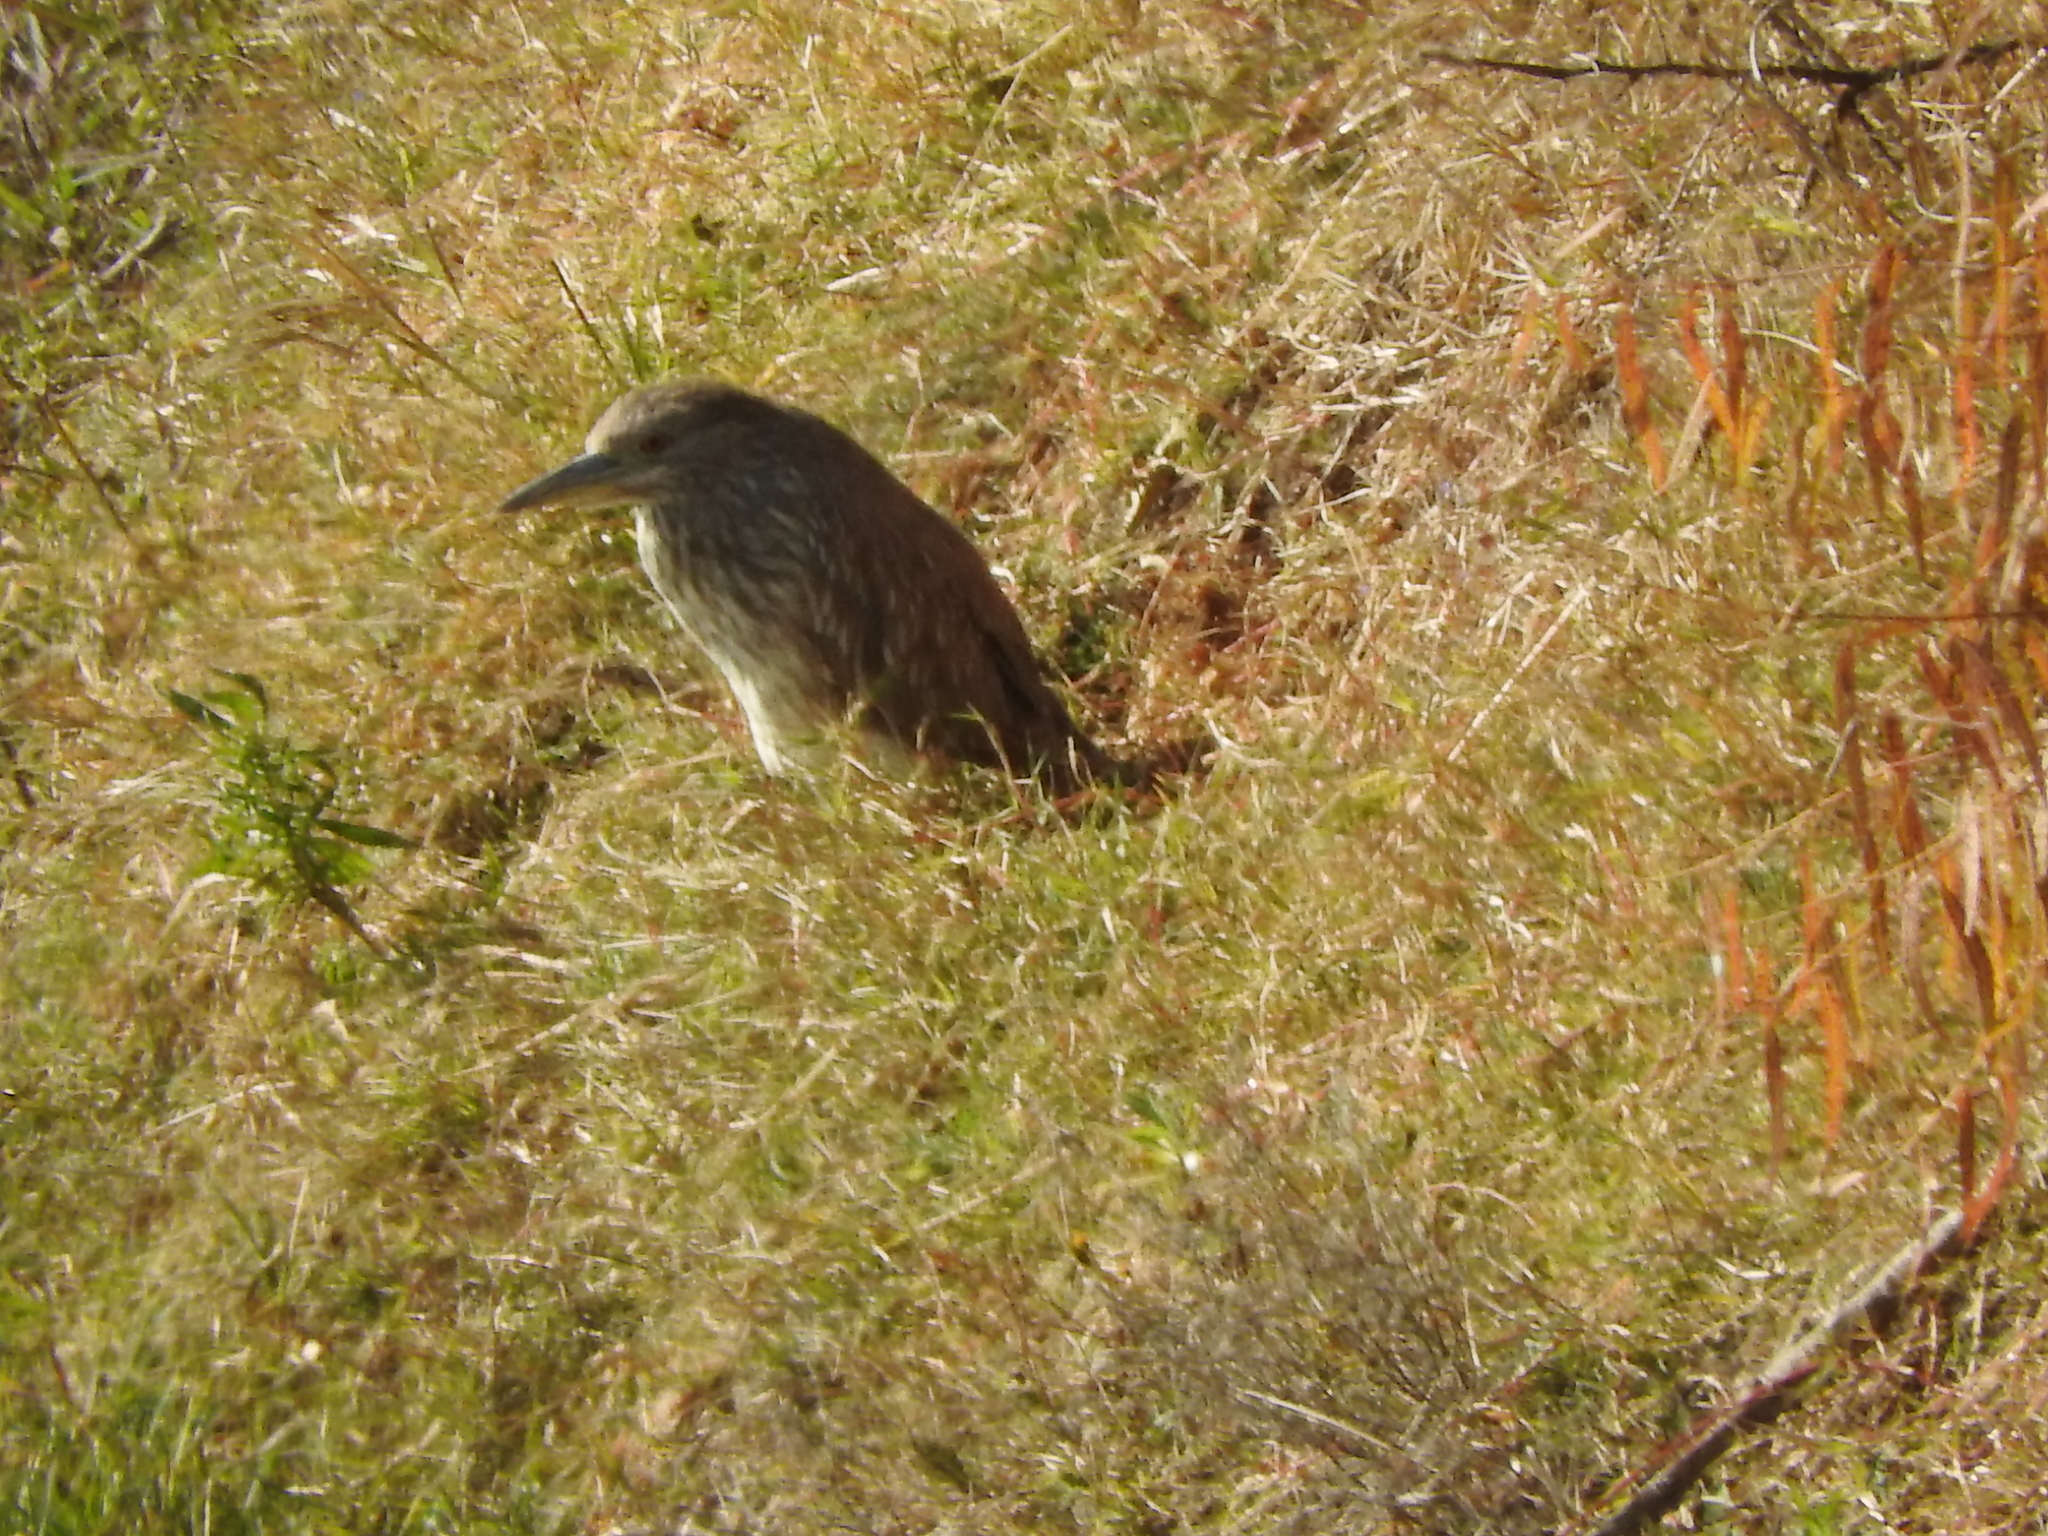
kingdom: Animalia
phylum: Chordata
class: Aves
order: Pelecaniformes
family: Ardeidae
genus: Nycticorax
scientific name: Nycticorax nycticorax
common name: Black-crowned night heron
